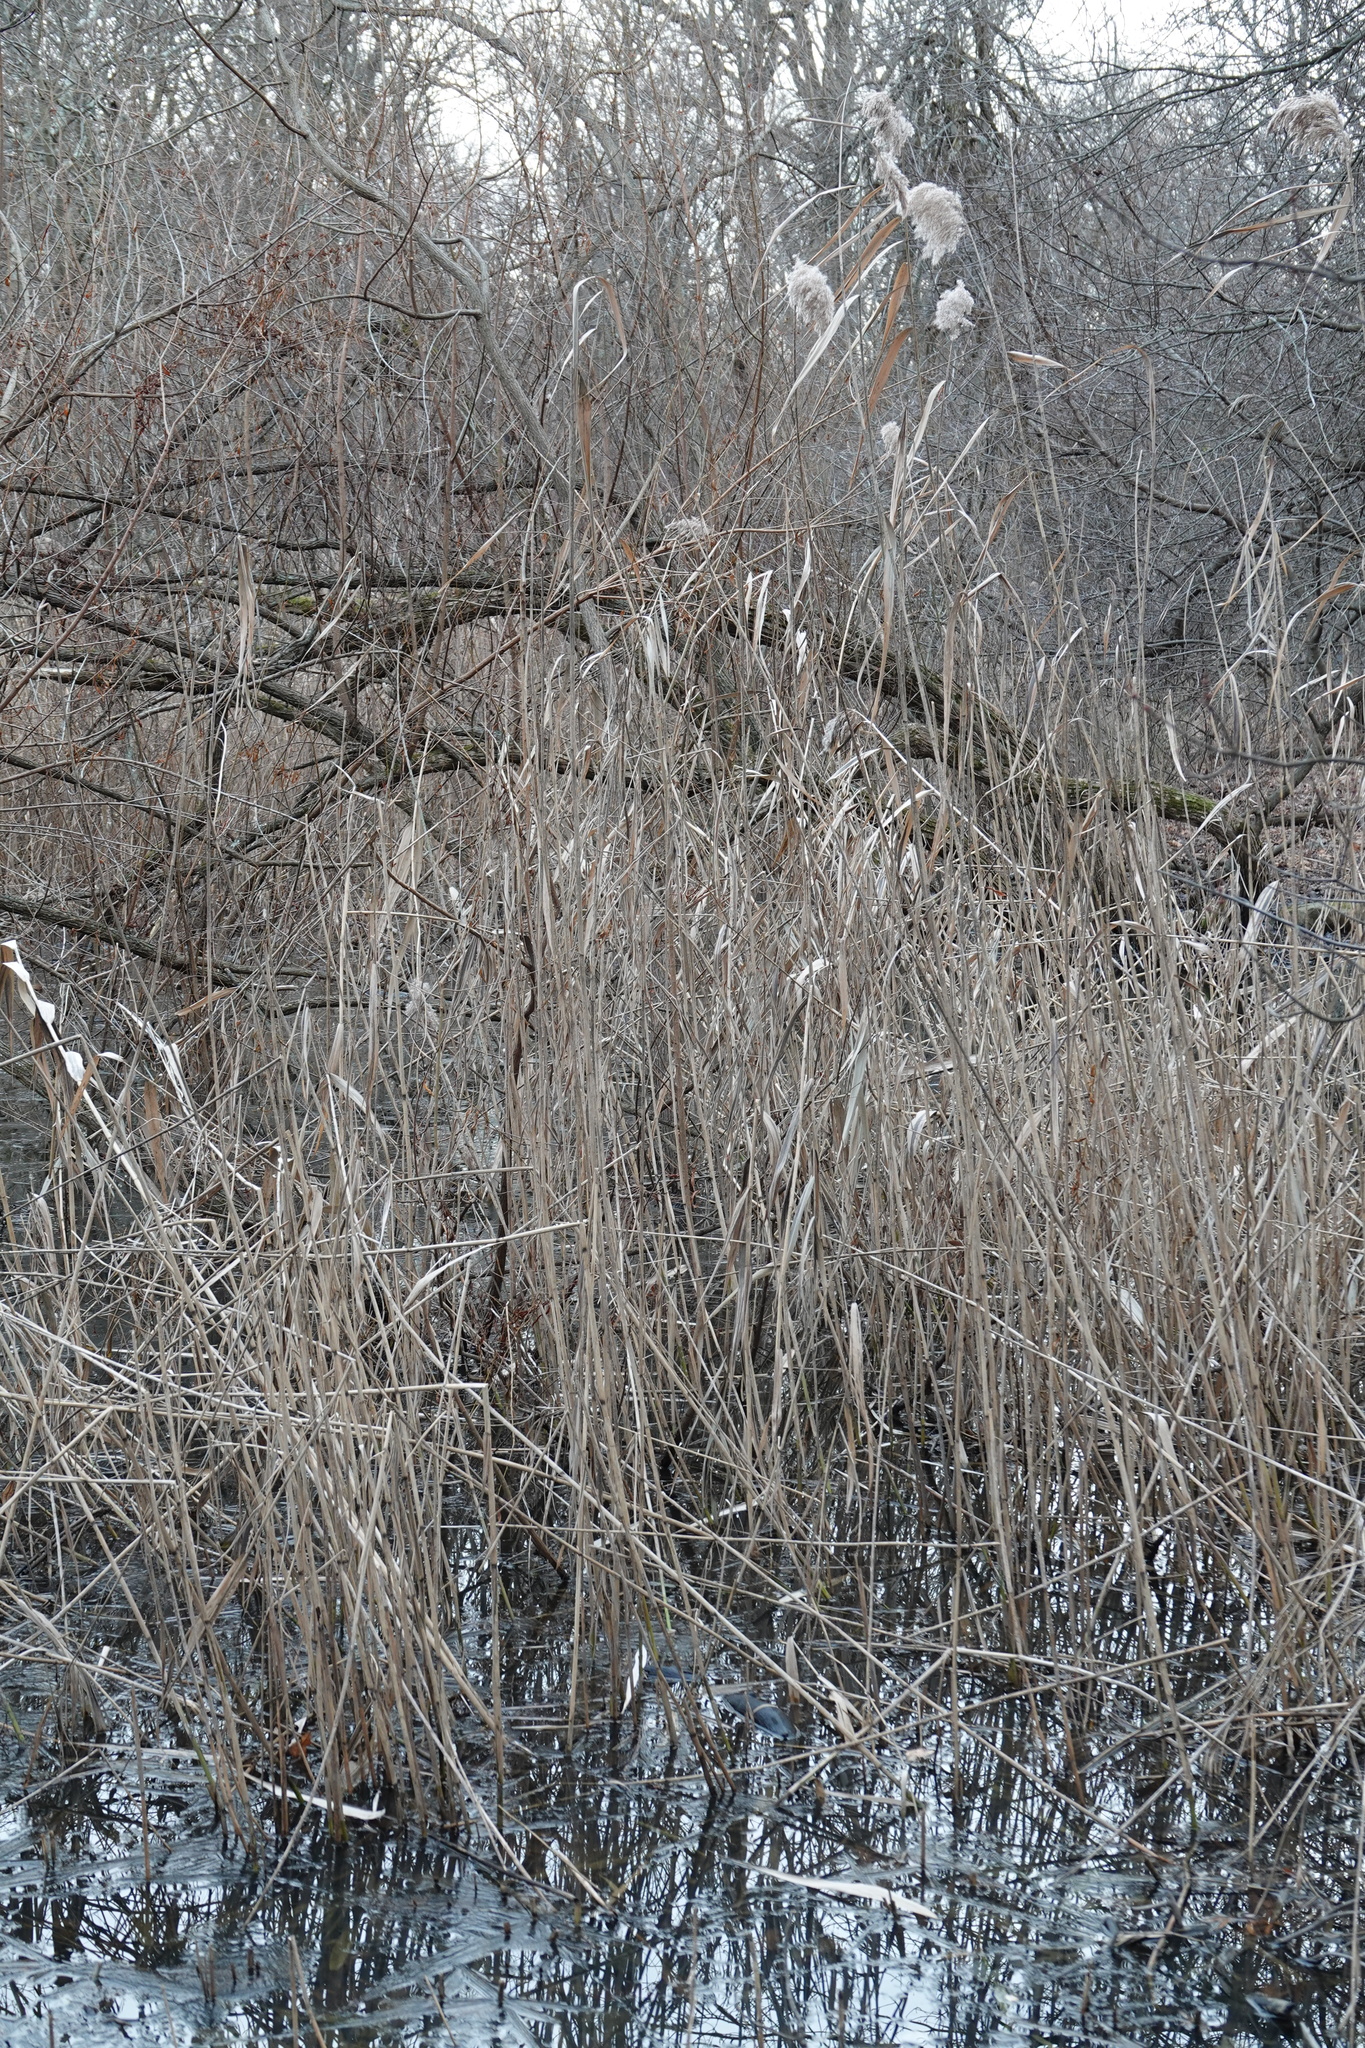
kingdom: Plantae
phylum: Tracheophyta
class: Liliopsida
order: Poales
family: Poaceae
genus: Phragmites
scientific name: Phragmites australis
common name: Common reed
